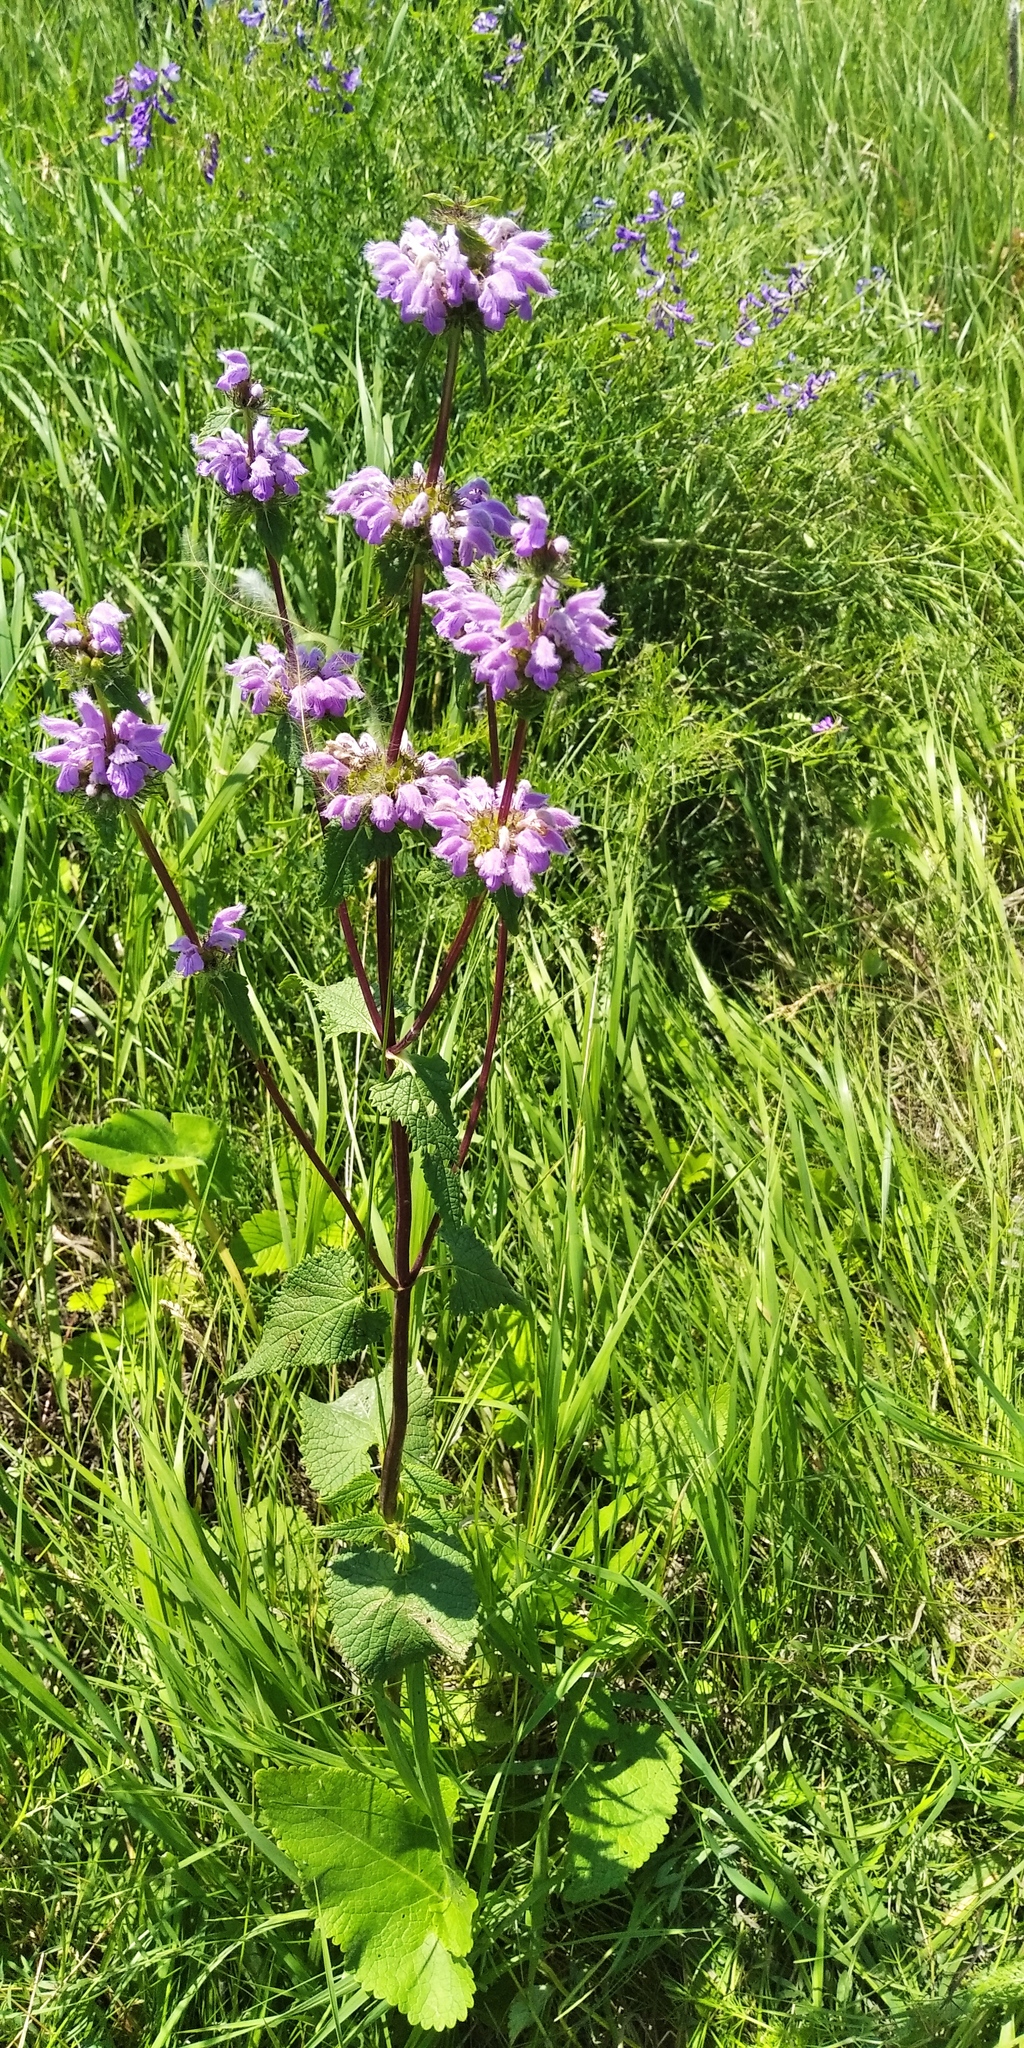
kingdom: Plantae
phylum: Tracheophyta
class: Magnoliopsida
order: Lamiales
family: Lamiaceae
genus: Phlomoides
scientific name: Phlomoides tuberosa
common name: Tuberous jerusalem sage
